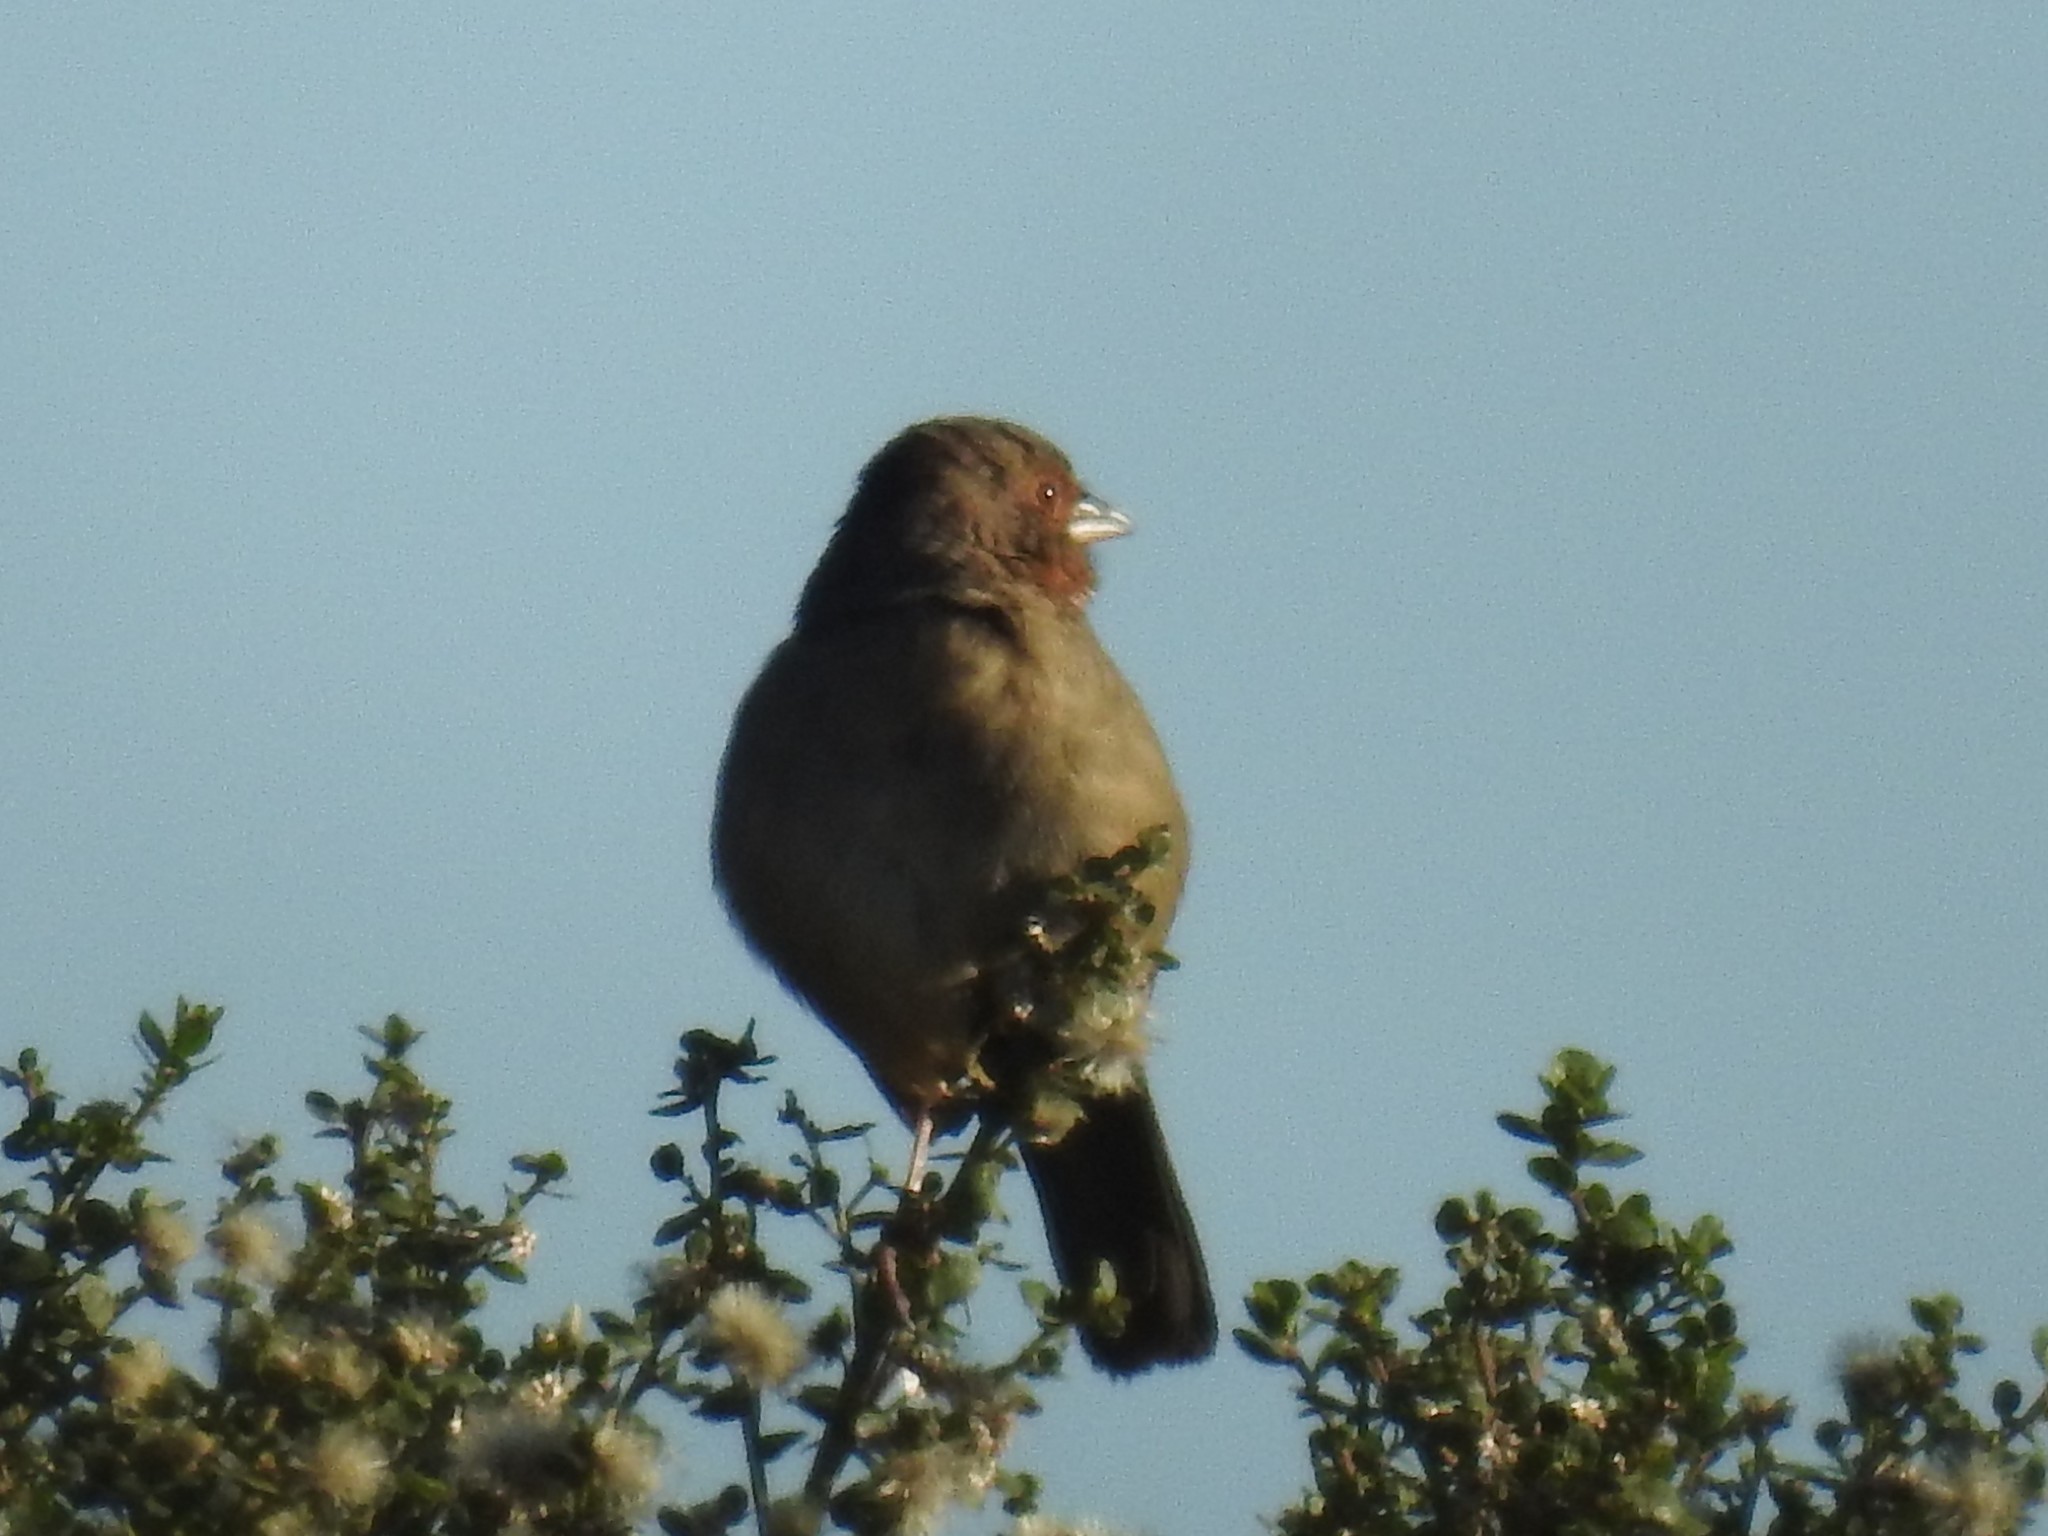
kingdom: Animalia
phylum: Chordata
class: Aves
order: Passeriformes
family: Passerellidae
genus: Melozone
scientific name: Melozone crissalis
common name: California towhee
